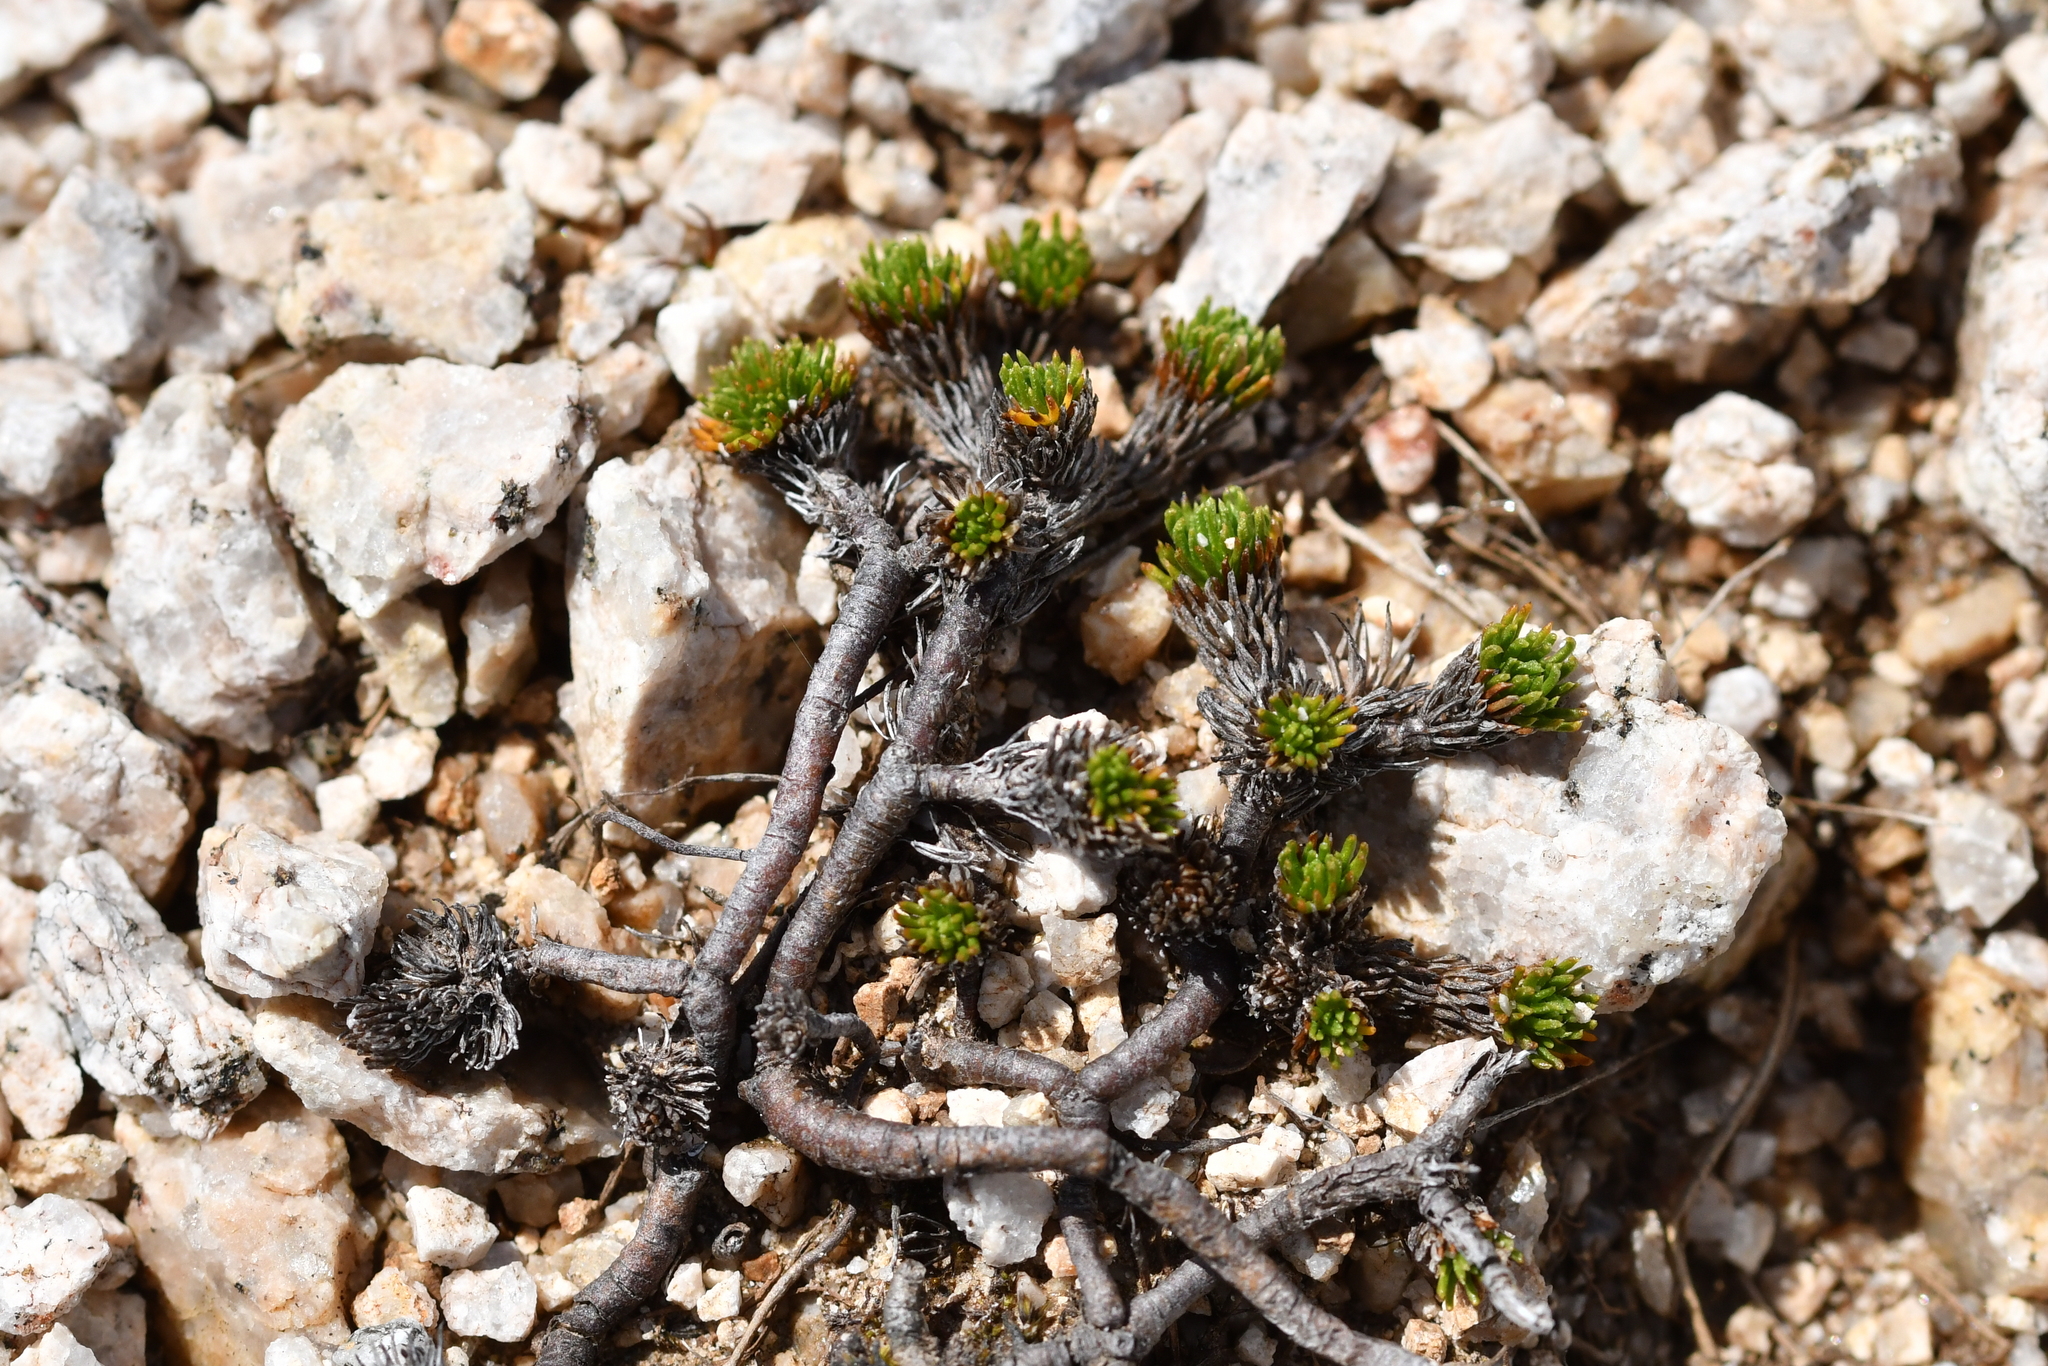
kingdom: Plantae
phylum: Tracheophyta
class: Magnoliopsida
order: Asterales
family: Asteraceae
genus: Leptinella
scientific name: Leptinella goyenii
